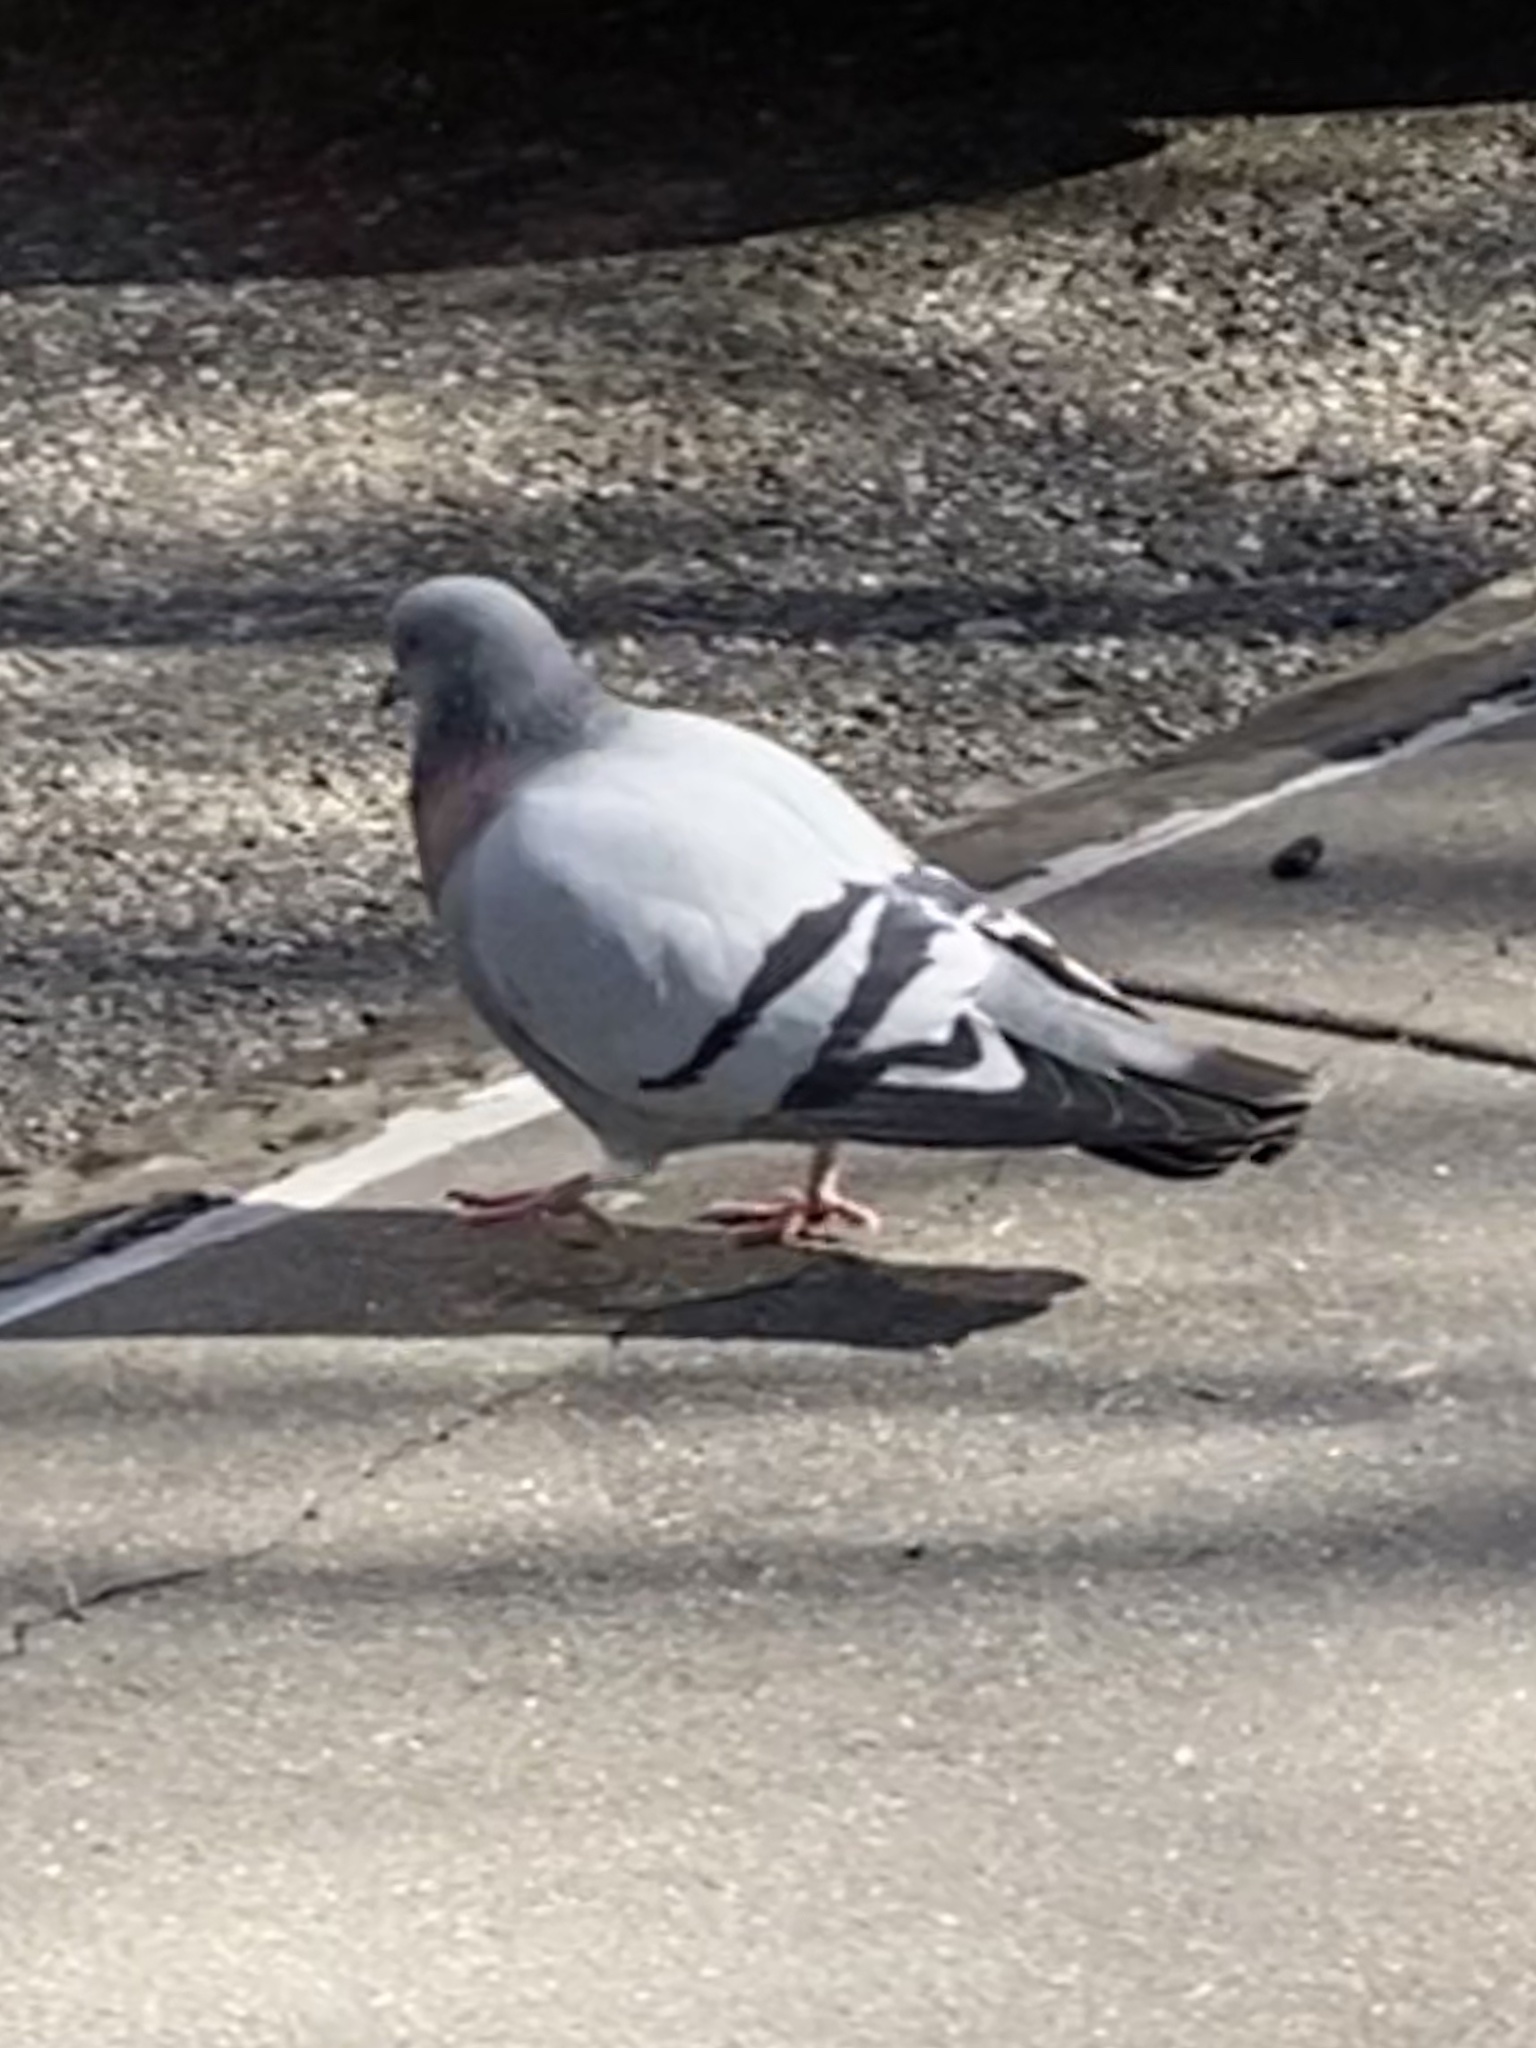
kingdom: Animalia
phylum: Chordata
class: Aves
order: Columbiformes
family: Columbidae
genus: Columba
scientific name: Columba livia
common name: Rock pigeon
